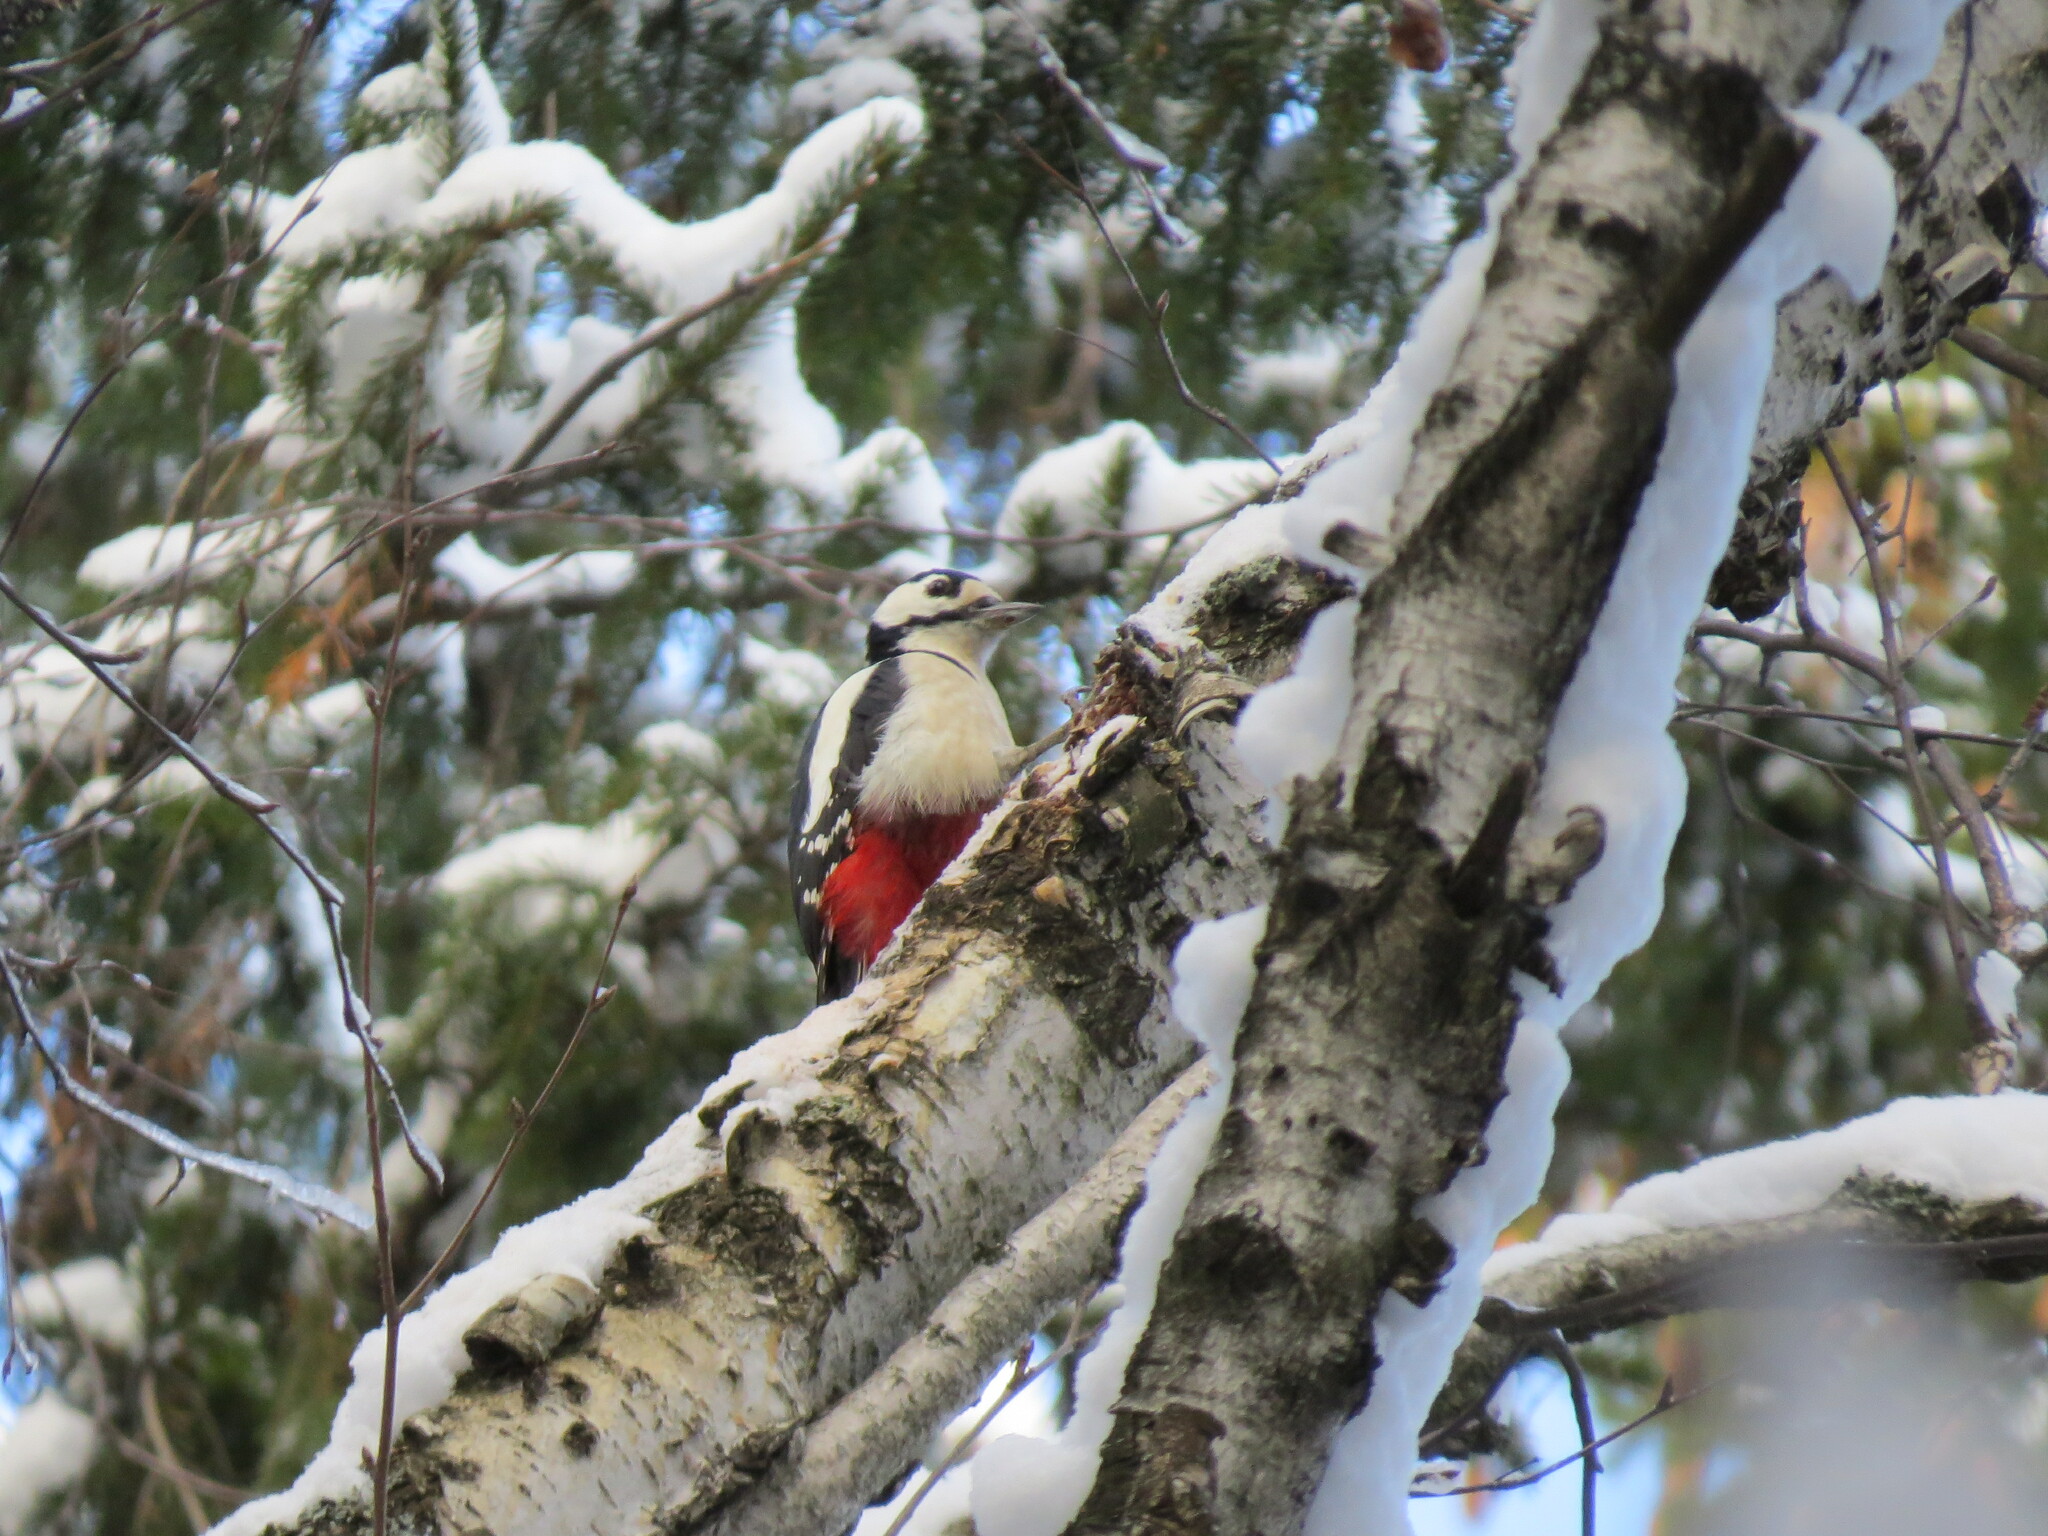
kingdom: Animalia
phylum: Chordata
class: Aves
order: Piciformes
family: Picidae
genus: Dendrocopos
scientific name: Dendrocopos major
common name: Great spotted woodpecker
